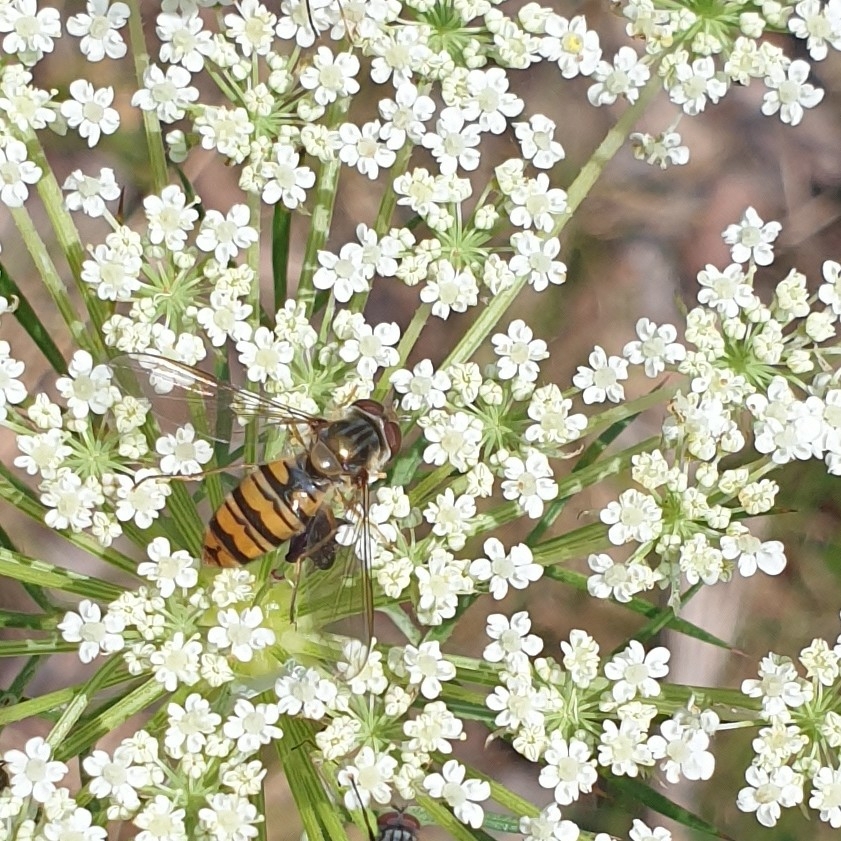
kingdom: Animalia
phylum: Arthropoda
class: Insecta
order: Diptera
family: Syrphidae
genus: Episyrphus
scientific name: Episyrphus balteatus
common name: Marmalade hoverfly
